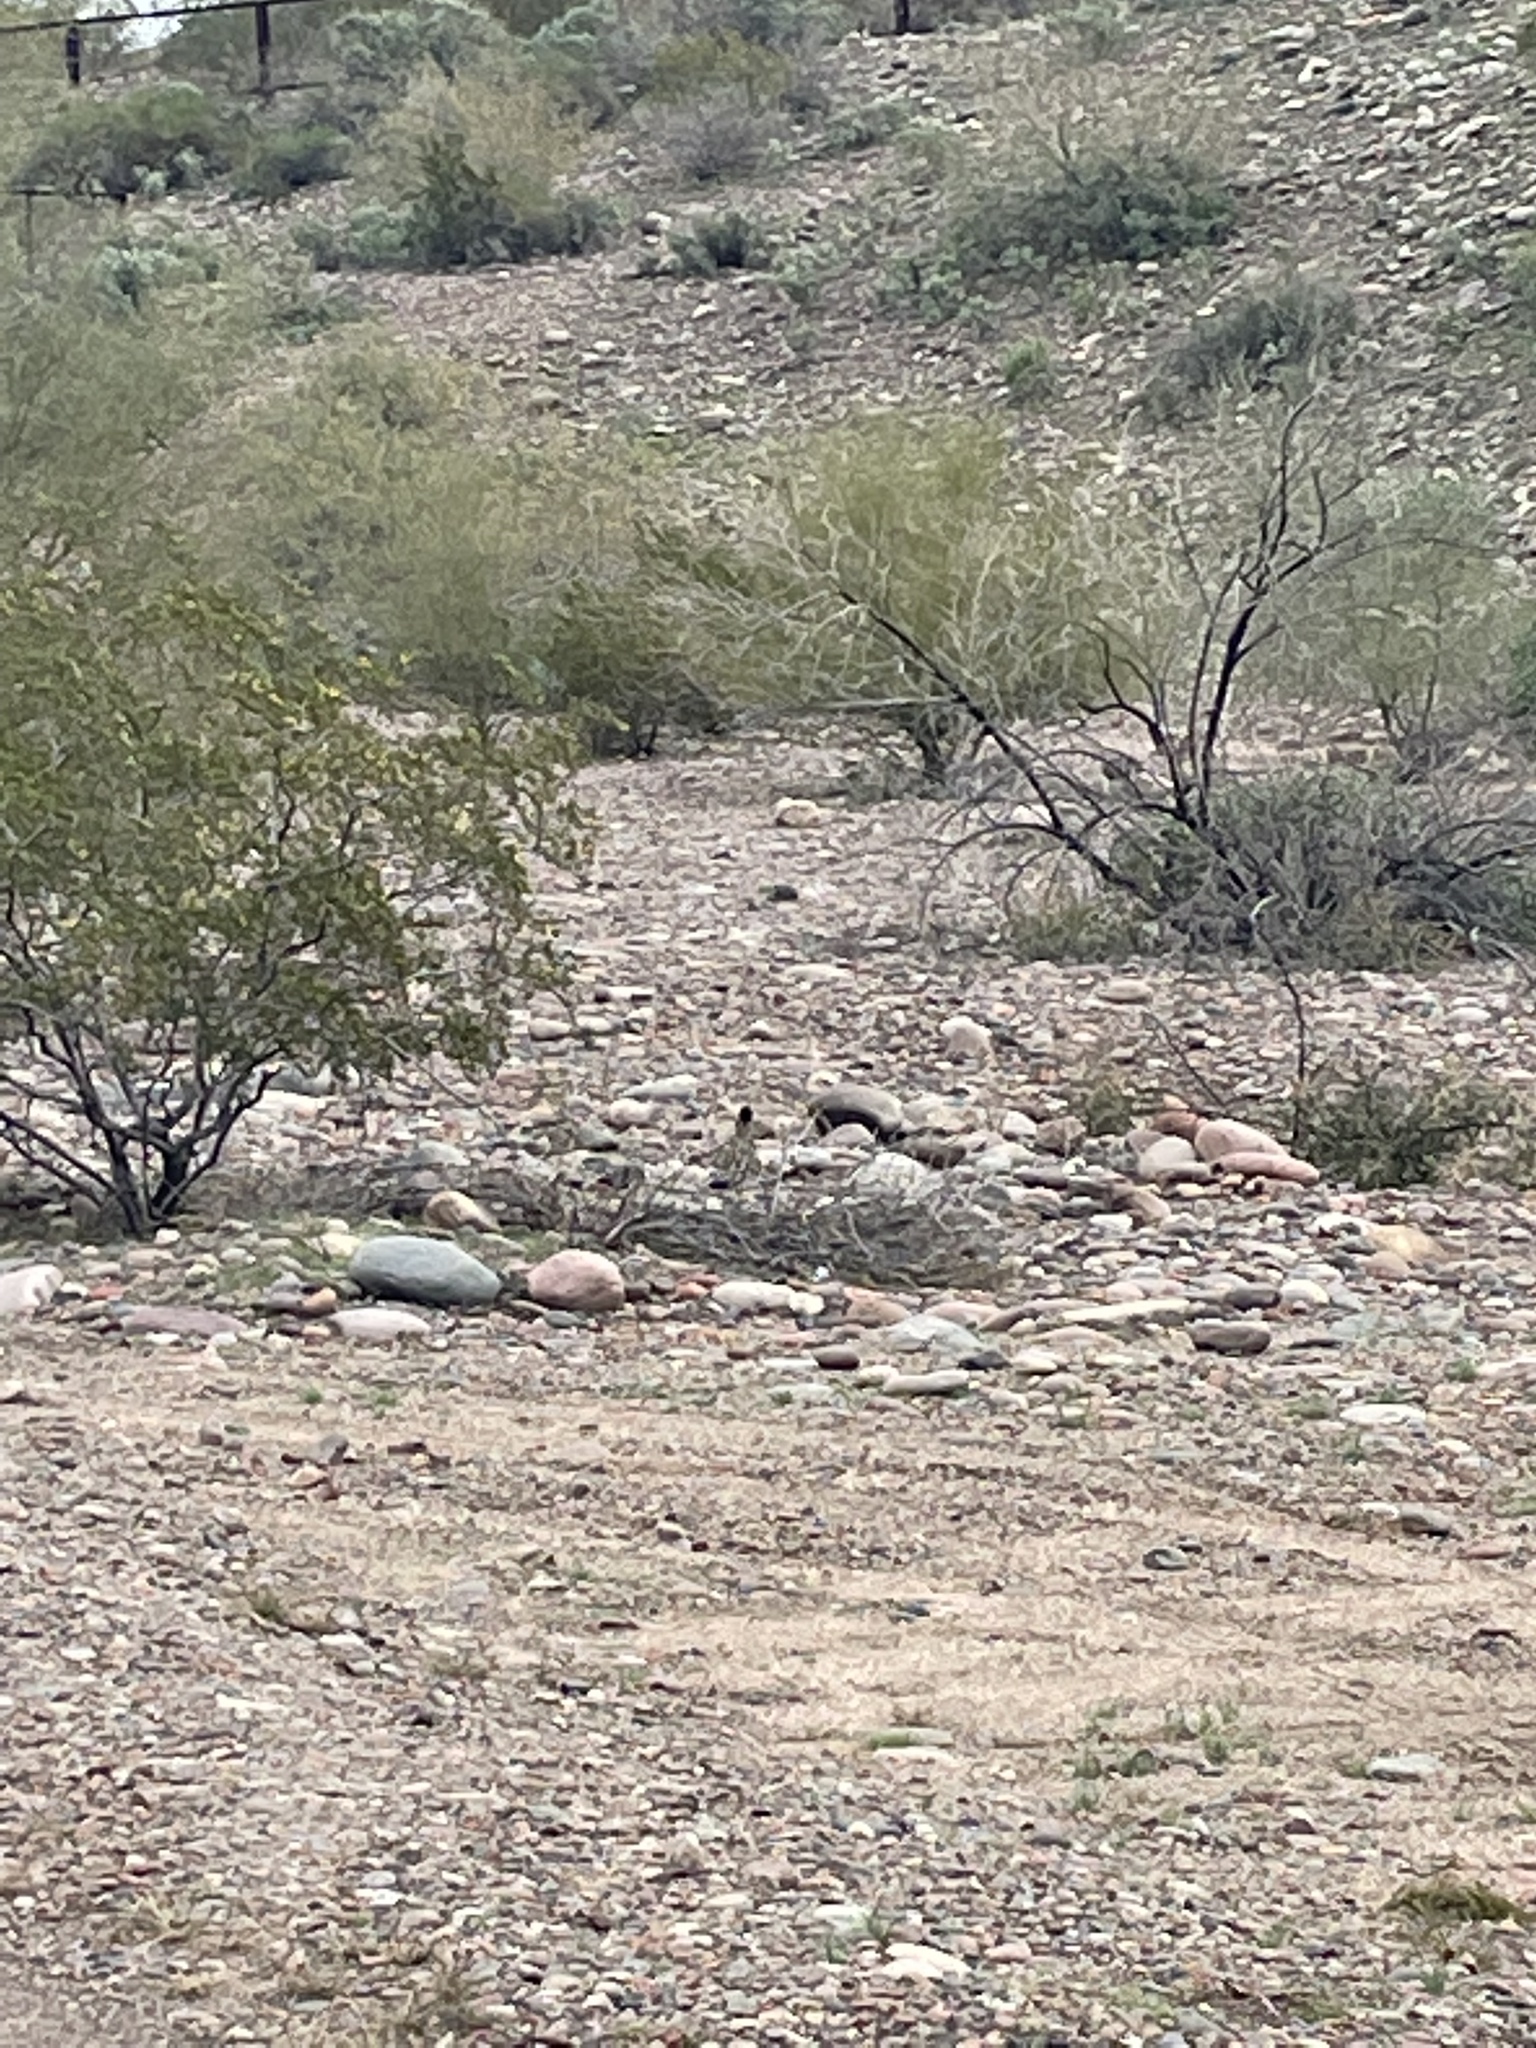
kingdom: Animalia
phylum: Chordata
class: Aves
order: Cuculiformes
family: Cuculidae
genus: Geococcyx
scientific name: Geococcyx californianus
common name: Greater roadrunner
